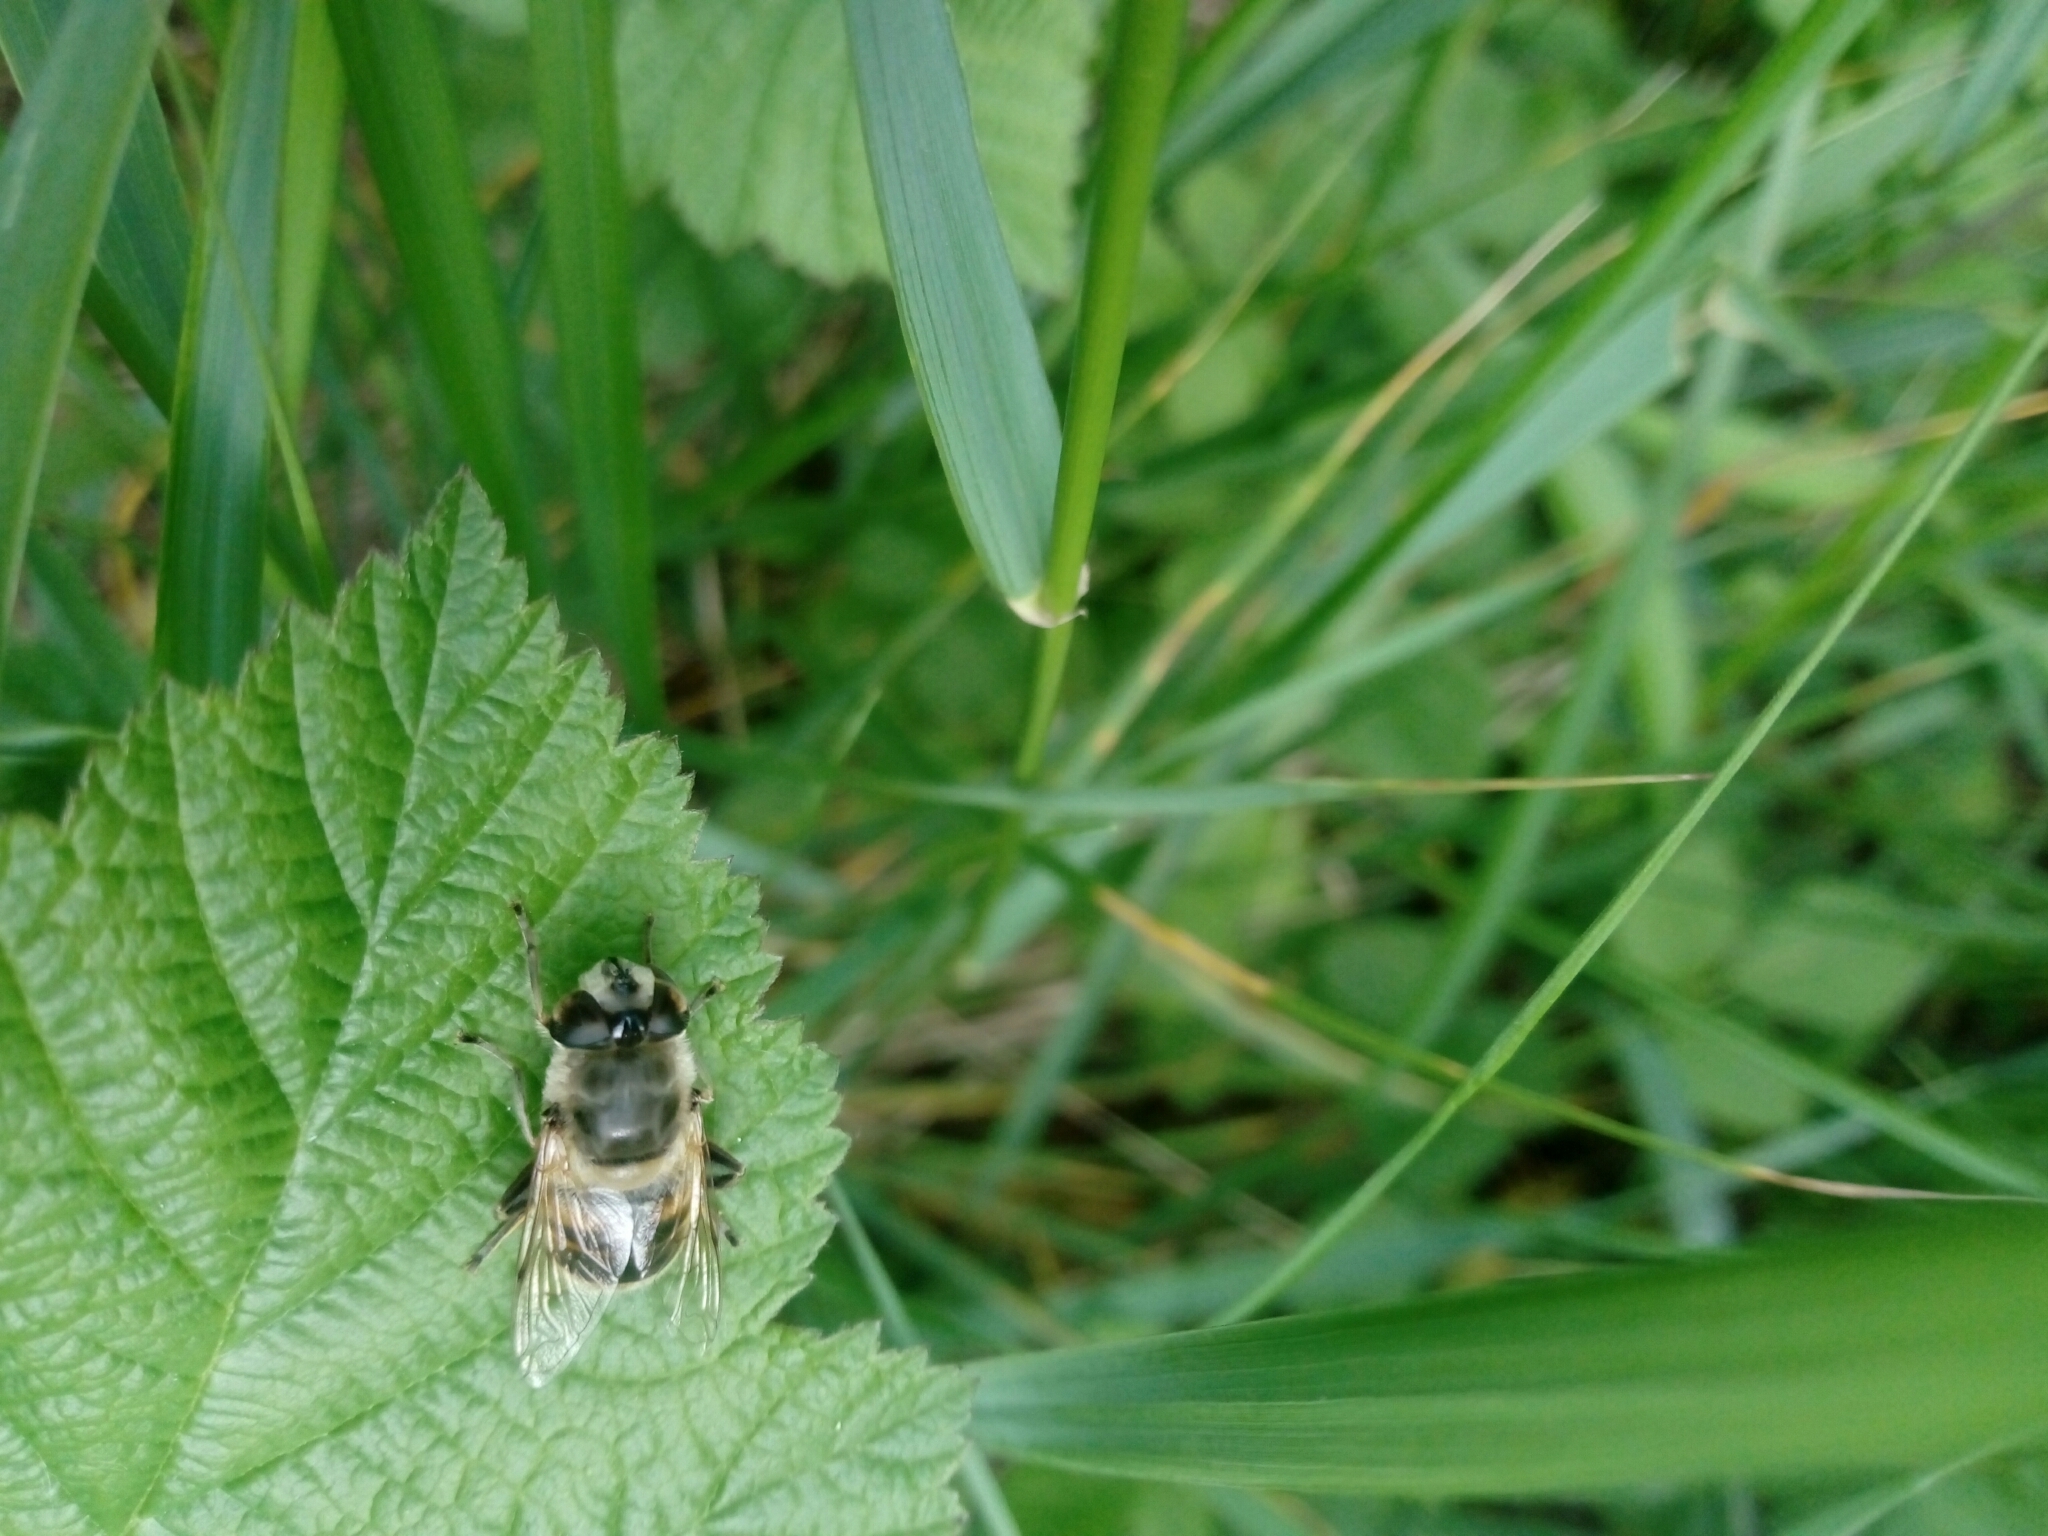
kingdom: Animalia
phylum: Arthropoda
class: Insecta
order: Diptera
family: Syrphidae
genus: Eristalis
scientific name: Eristalis tenax
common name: Drone fly
